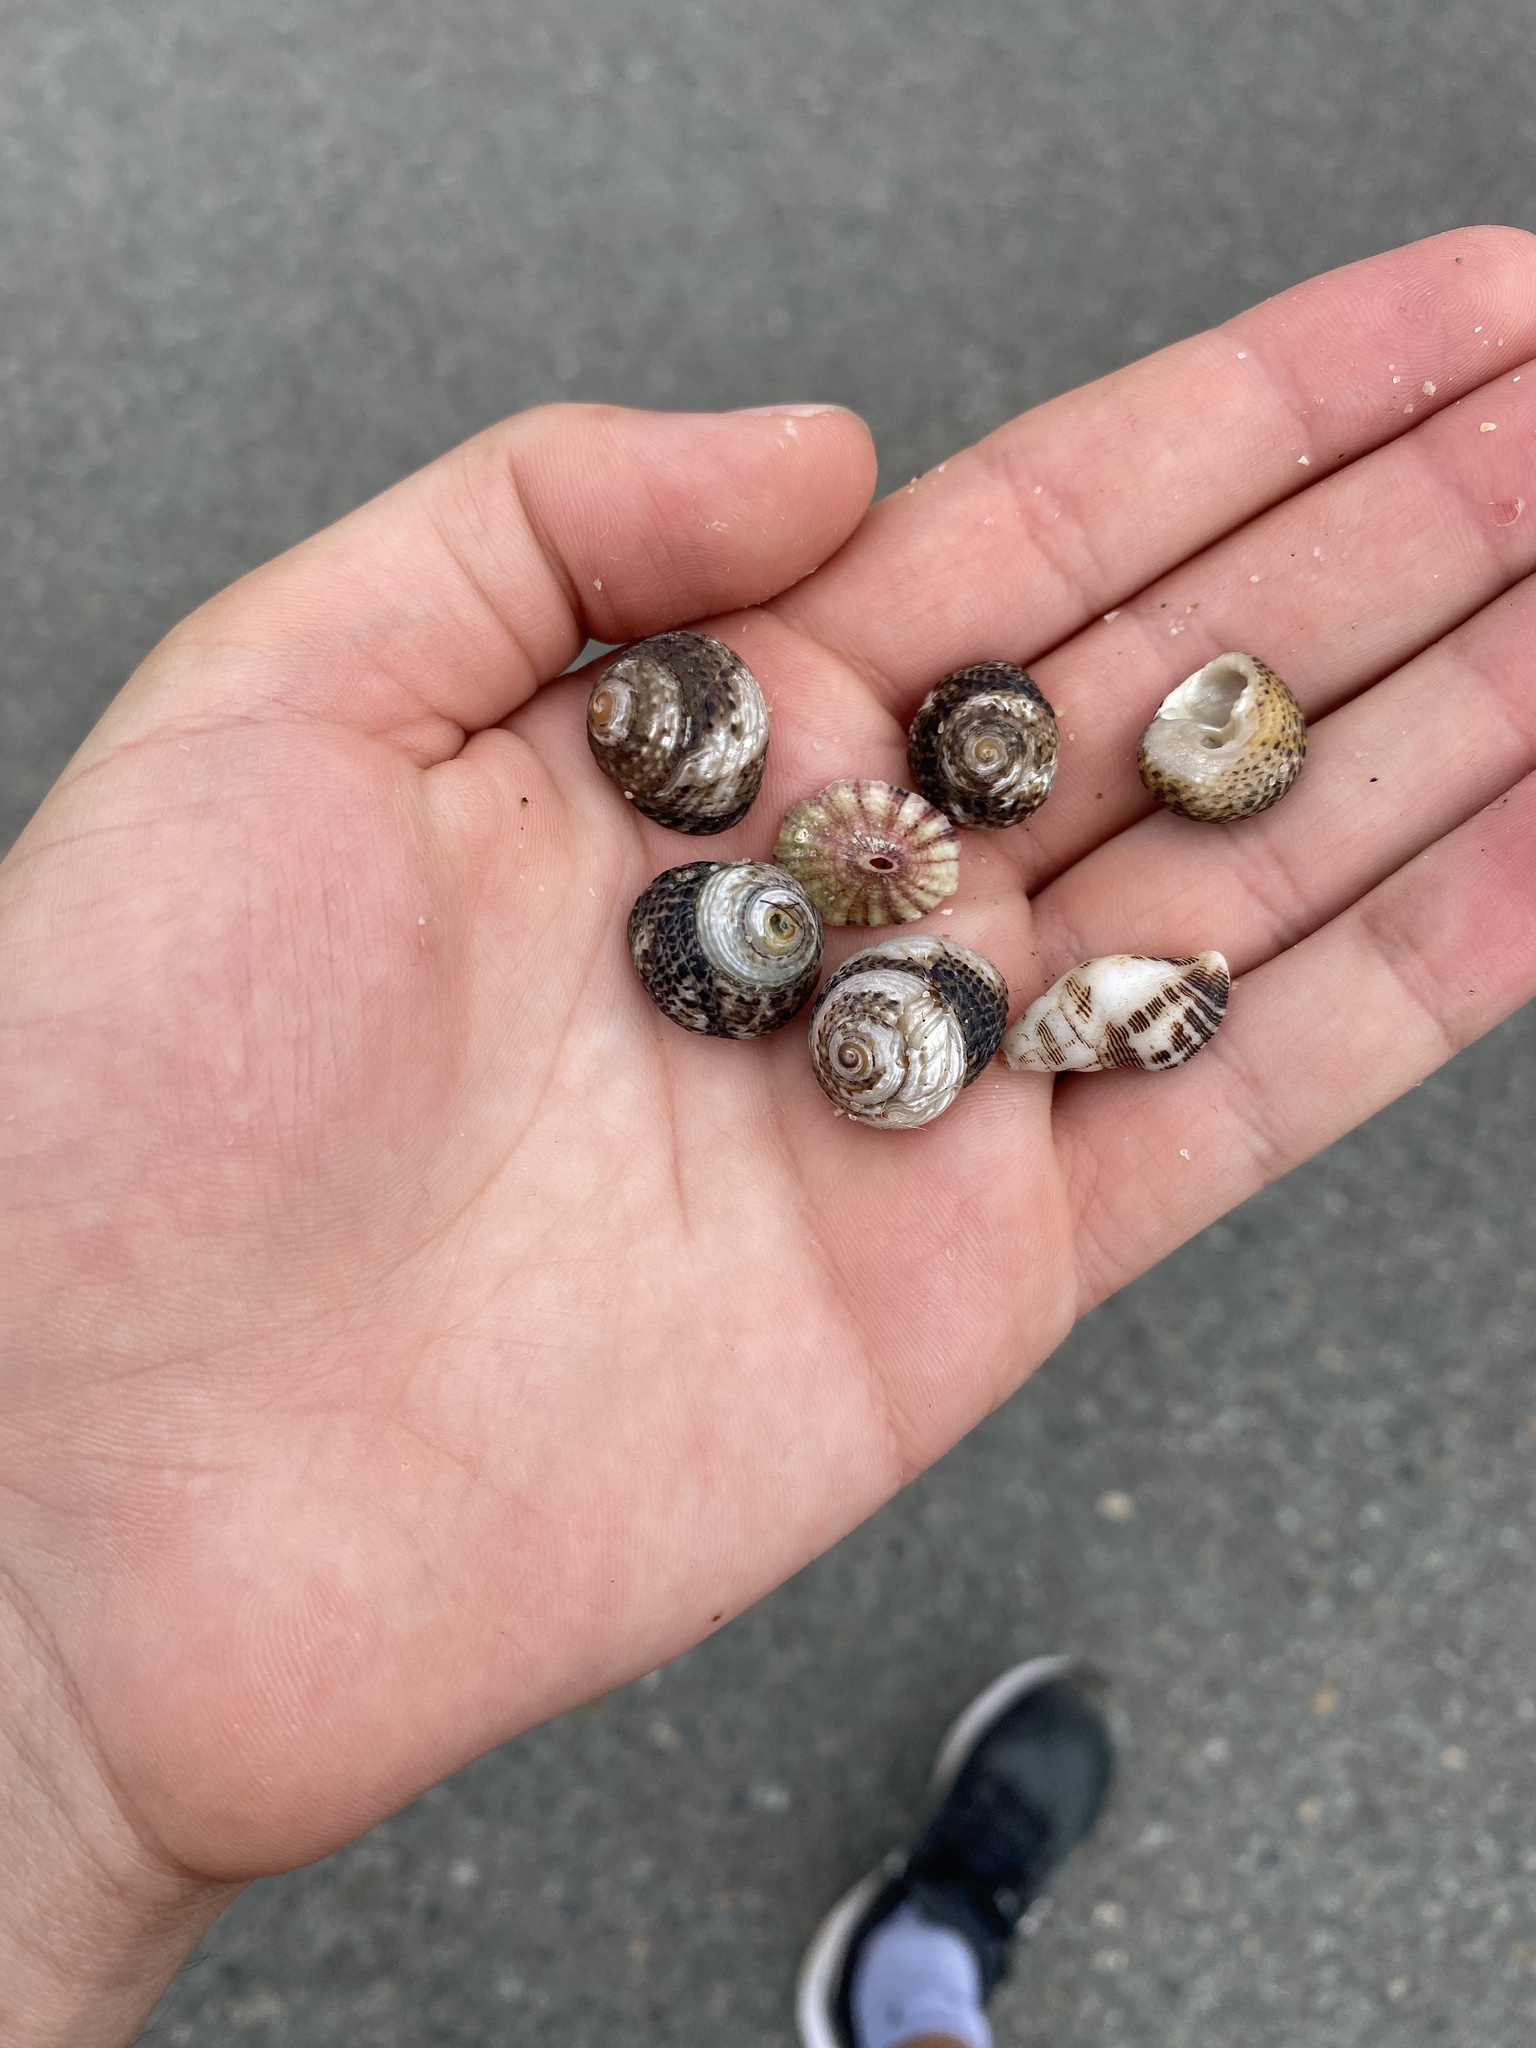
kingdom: Animalia
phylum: Mollusca
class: Gastropoda
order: Trochida
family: Tegulidae
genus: Tegula
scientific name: Tegula eiseni
